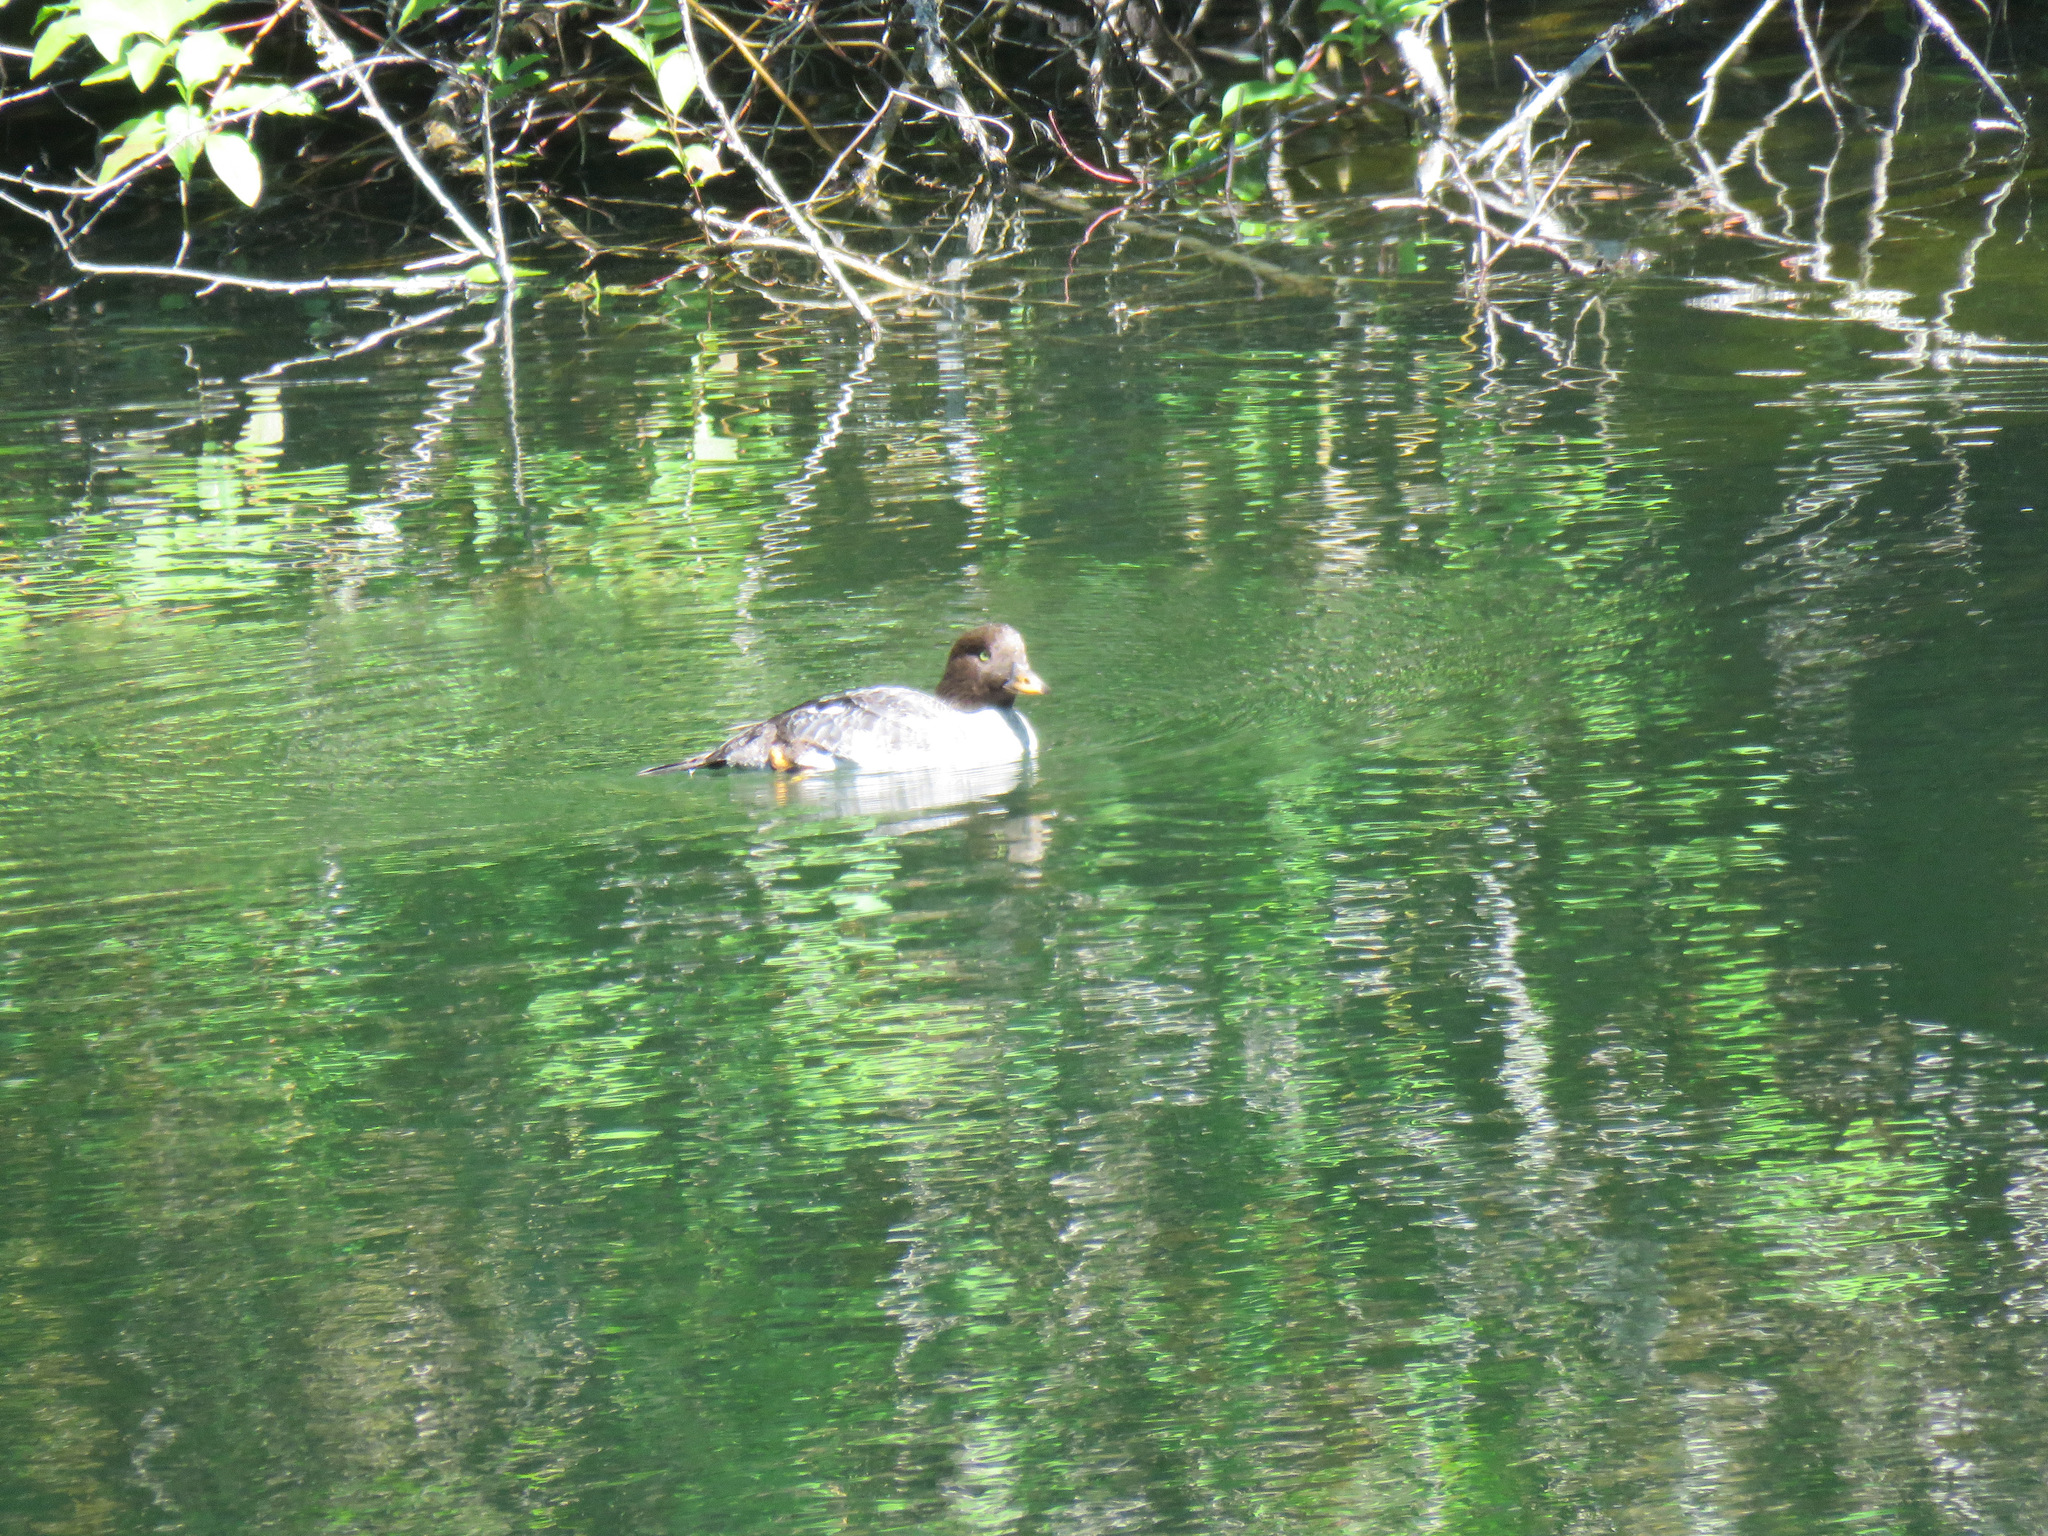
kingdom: Animalia
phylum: Chordata
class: Aves
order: Anseriformes
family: Anatidae
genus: Bucephala
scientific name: Bucephala islandica
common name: Barrow's goldeneye
